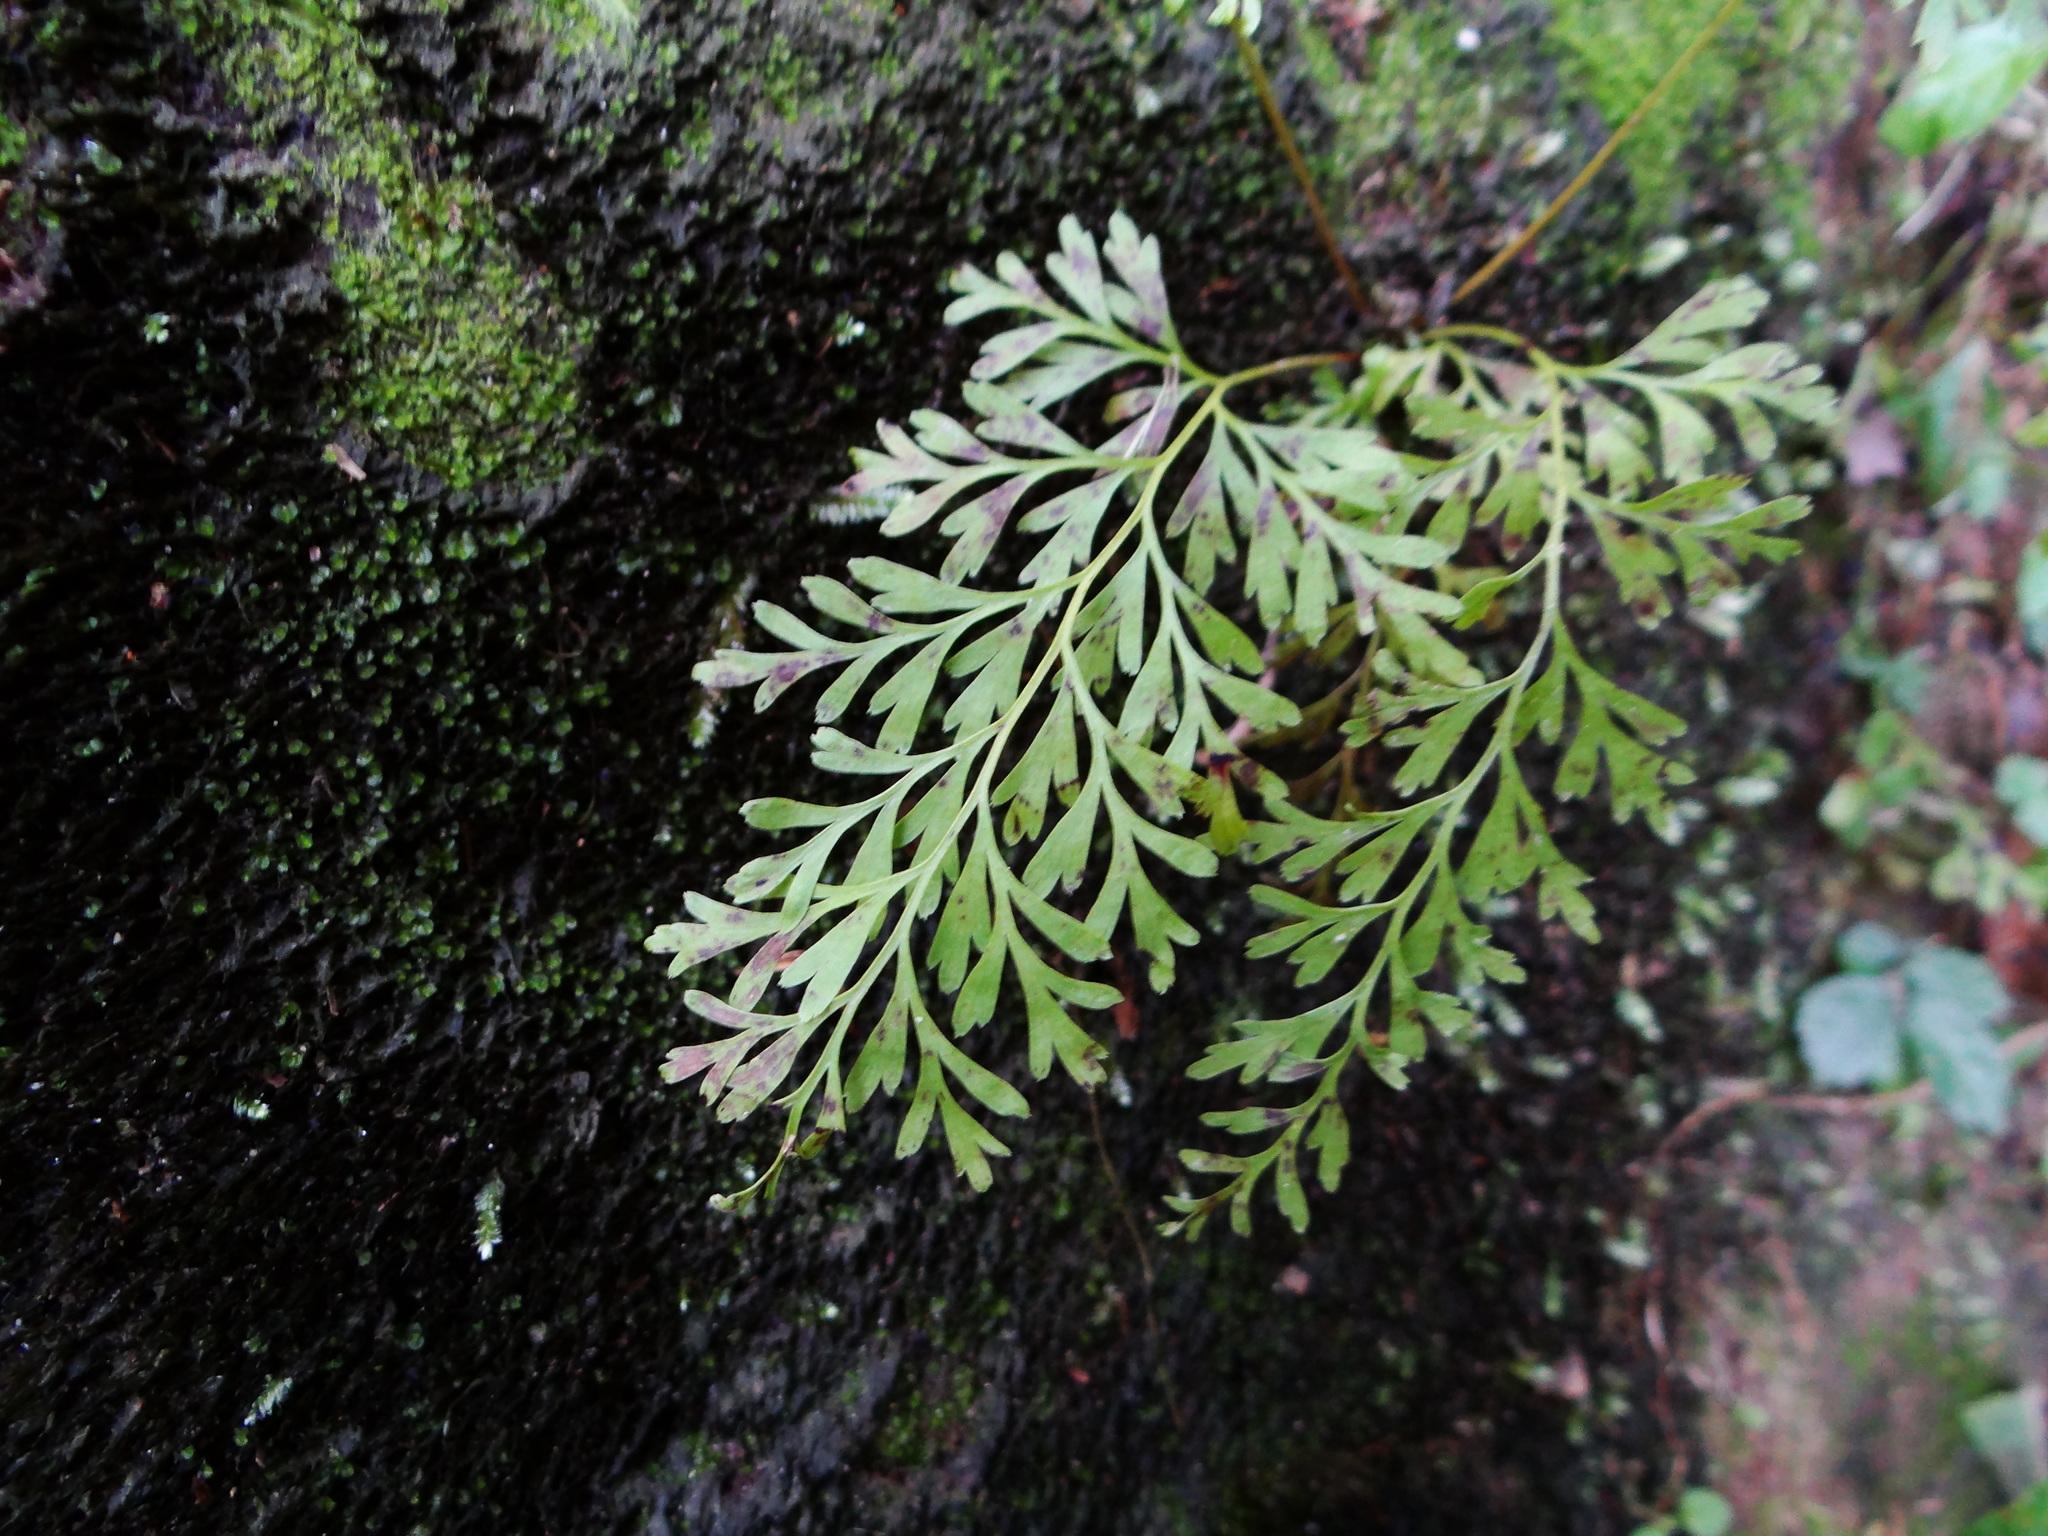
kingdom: Plantae
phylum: Tracheophyta
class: Polypodiopsida
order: Polypodiales
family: Lindsaeaceae
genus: Odontosoria
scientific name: Odontosoria chinensis
